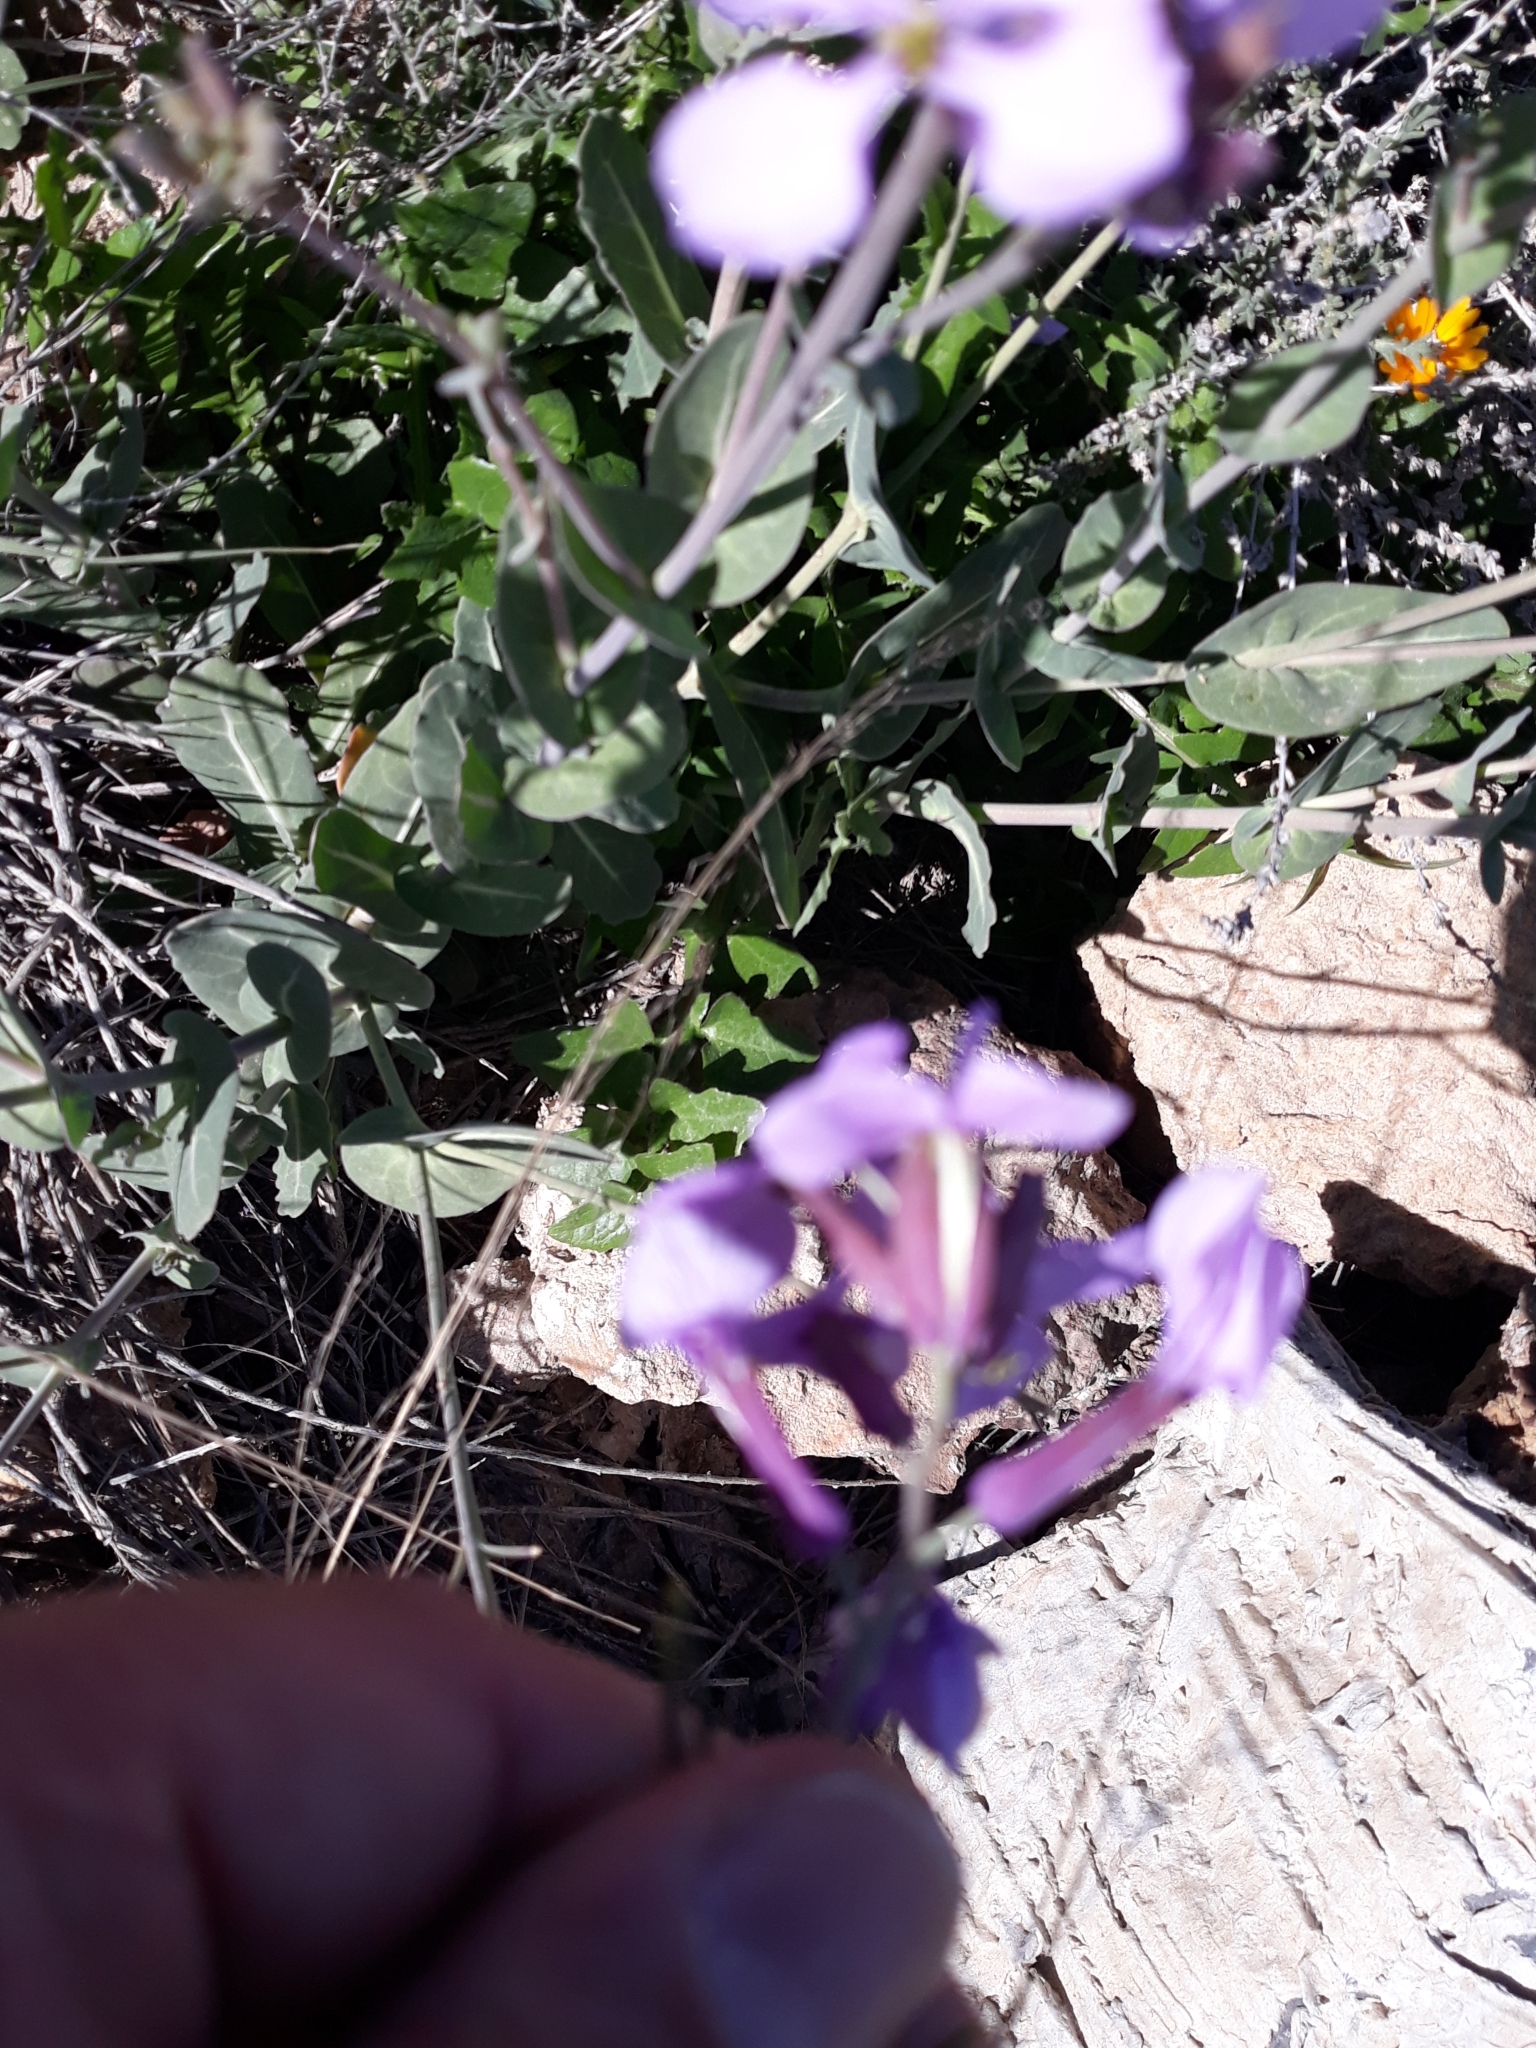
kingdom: Plantae
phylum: Tracheophyta
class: Magnoliopsida
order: Brassicales
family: Brassicaceae
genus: Moricandia
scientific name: Moricandia arvensis
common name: Purple mistress
